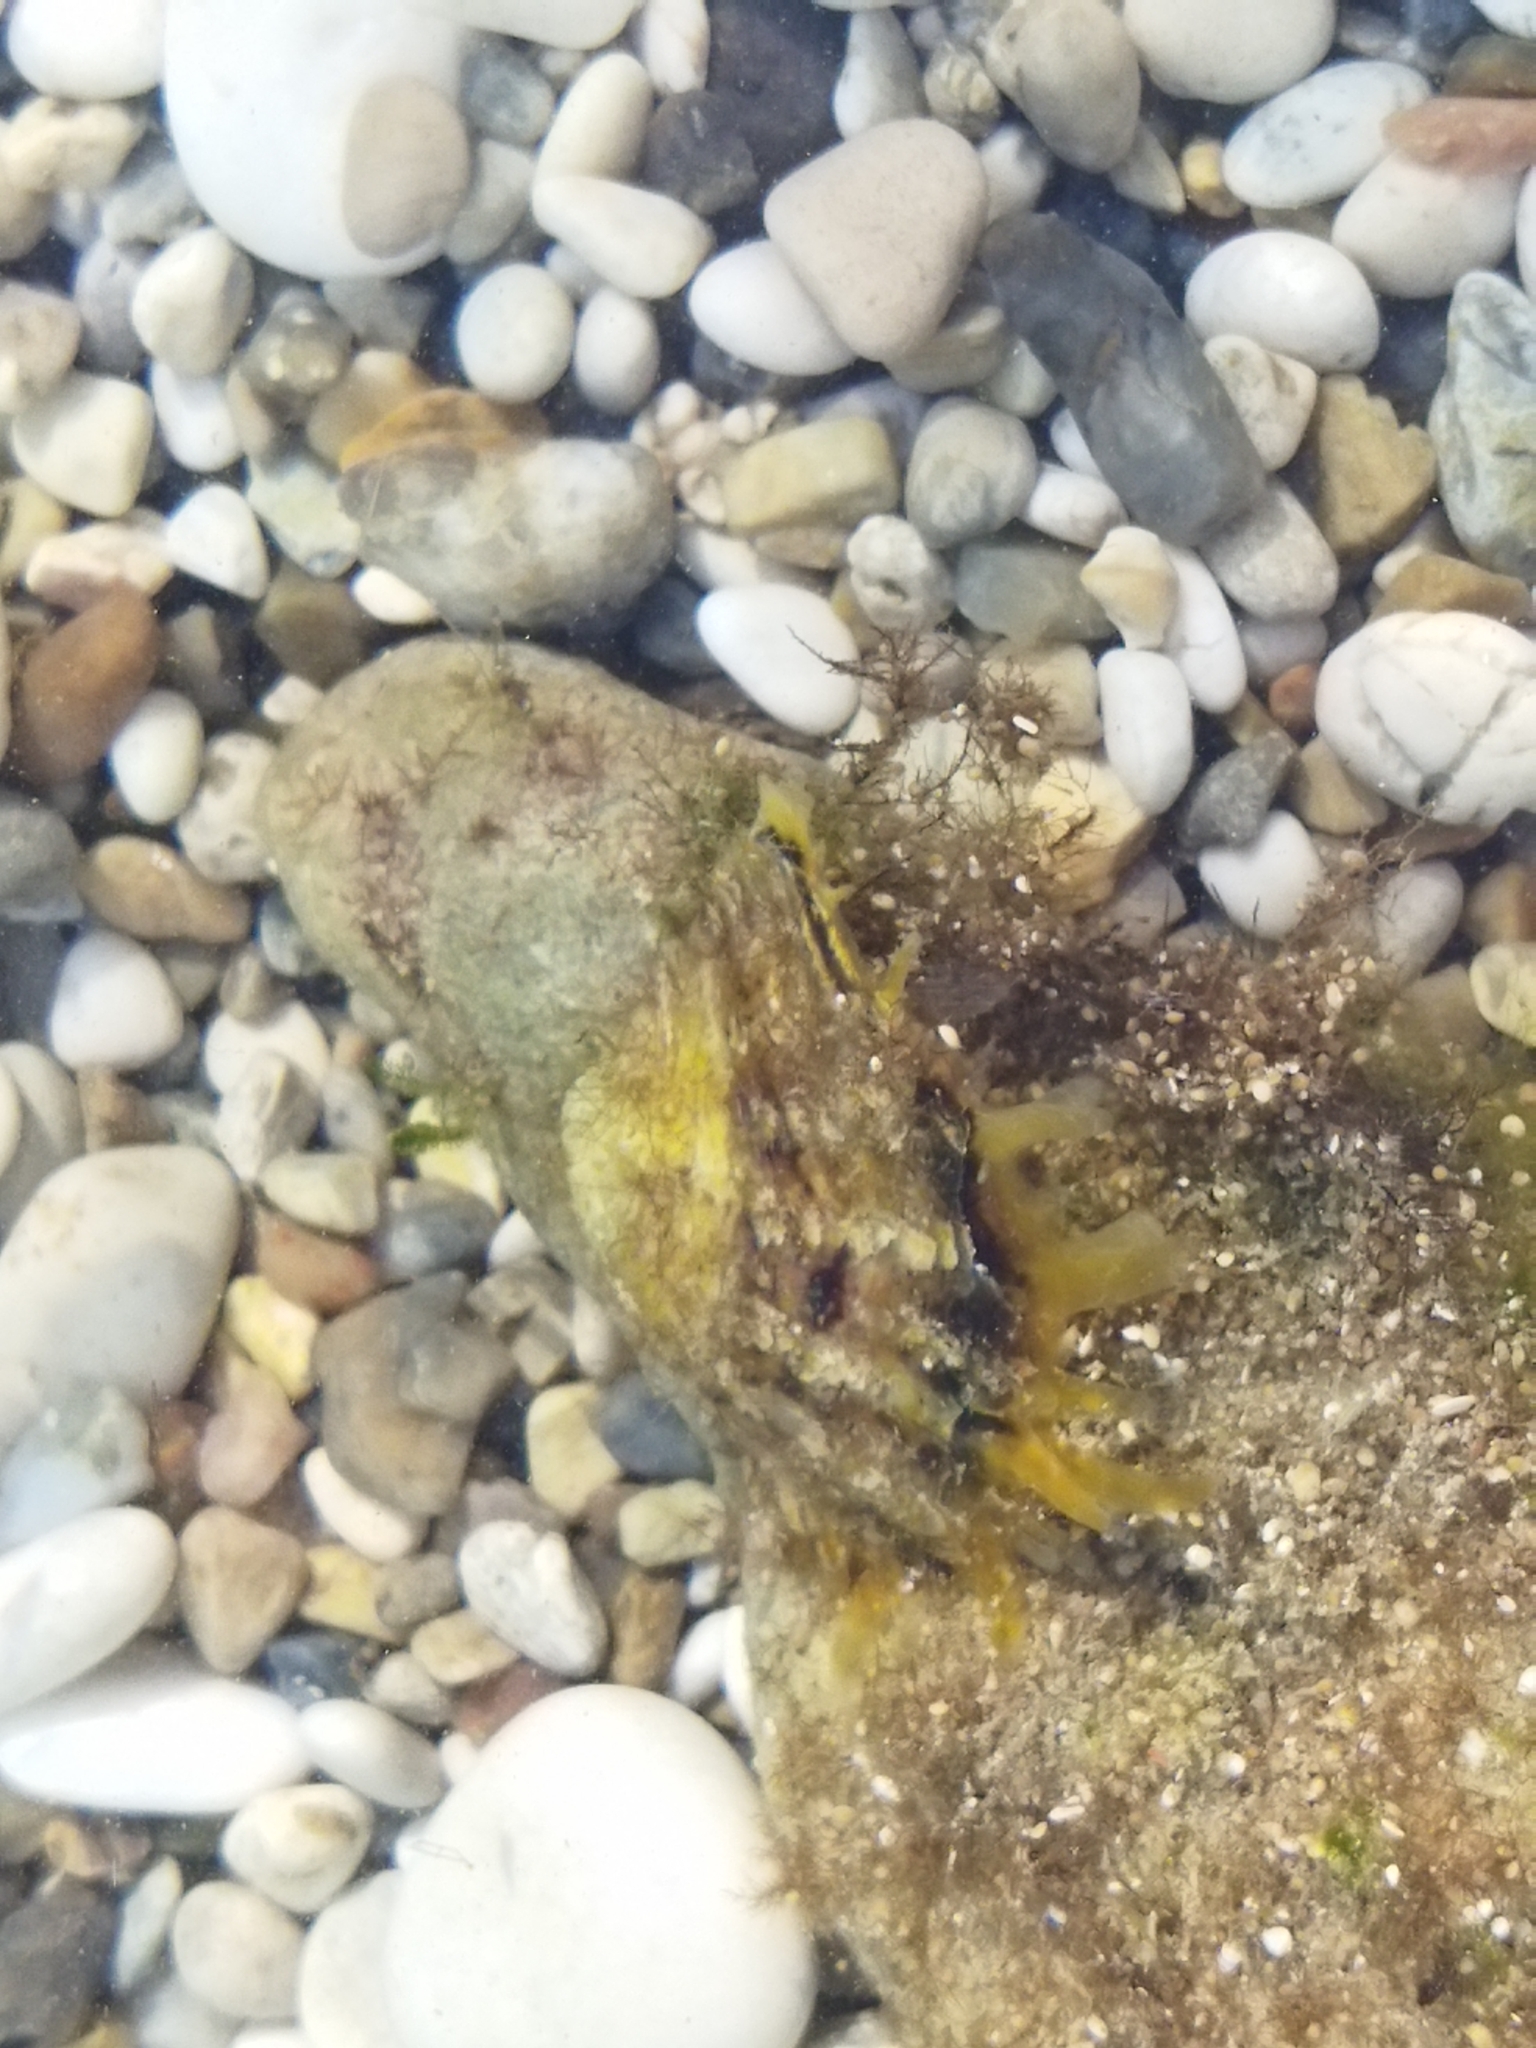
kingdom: Animalia
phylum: Mollusca
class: Bivalvia
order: Ostreida
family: Margaritidae
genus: Pinctada
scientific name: Pinctada radiata
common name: Rayed pearl oyster
